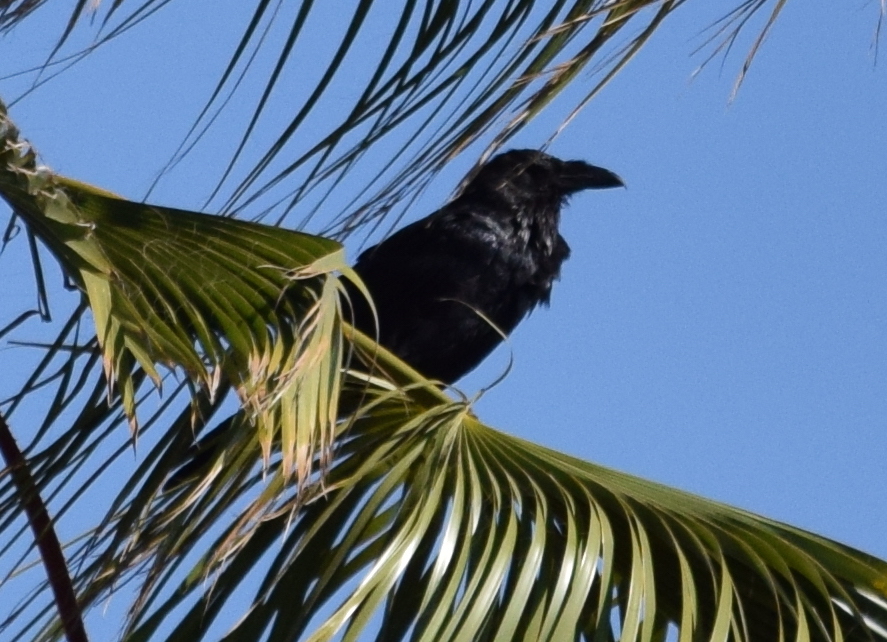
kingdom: Animalia
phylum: Chordata
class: Aves
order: Passeriformes
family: Corvidae
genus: Corvus
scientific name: Corvus corax
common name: Common raven
